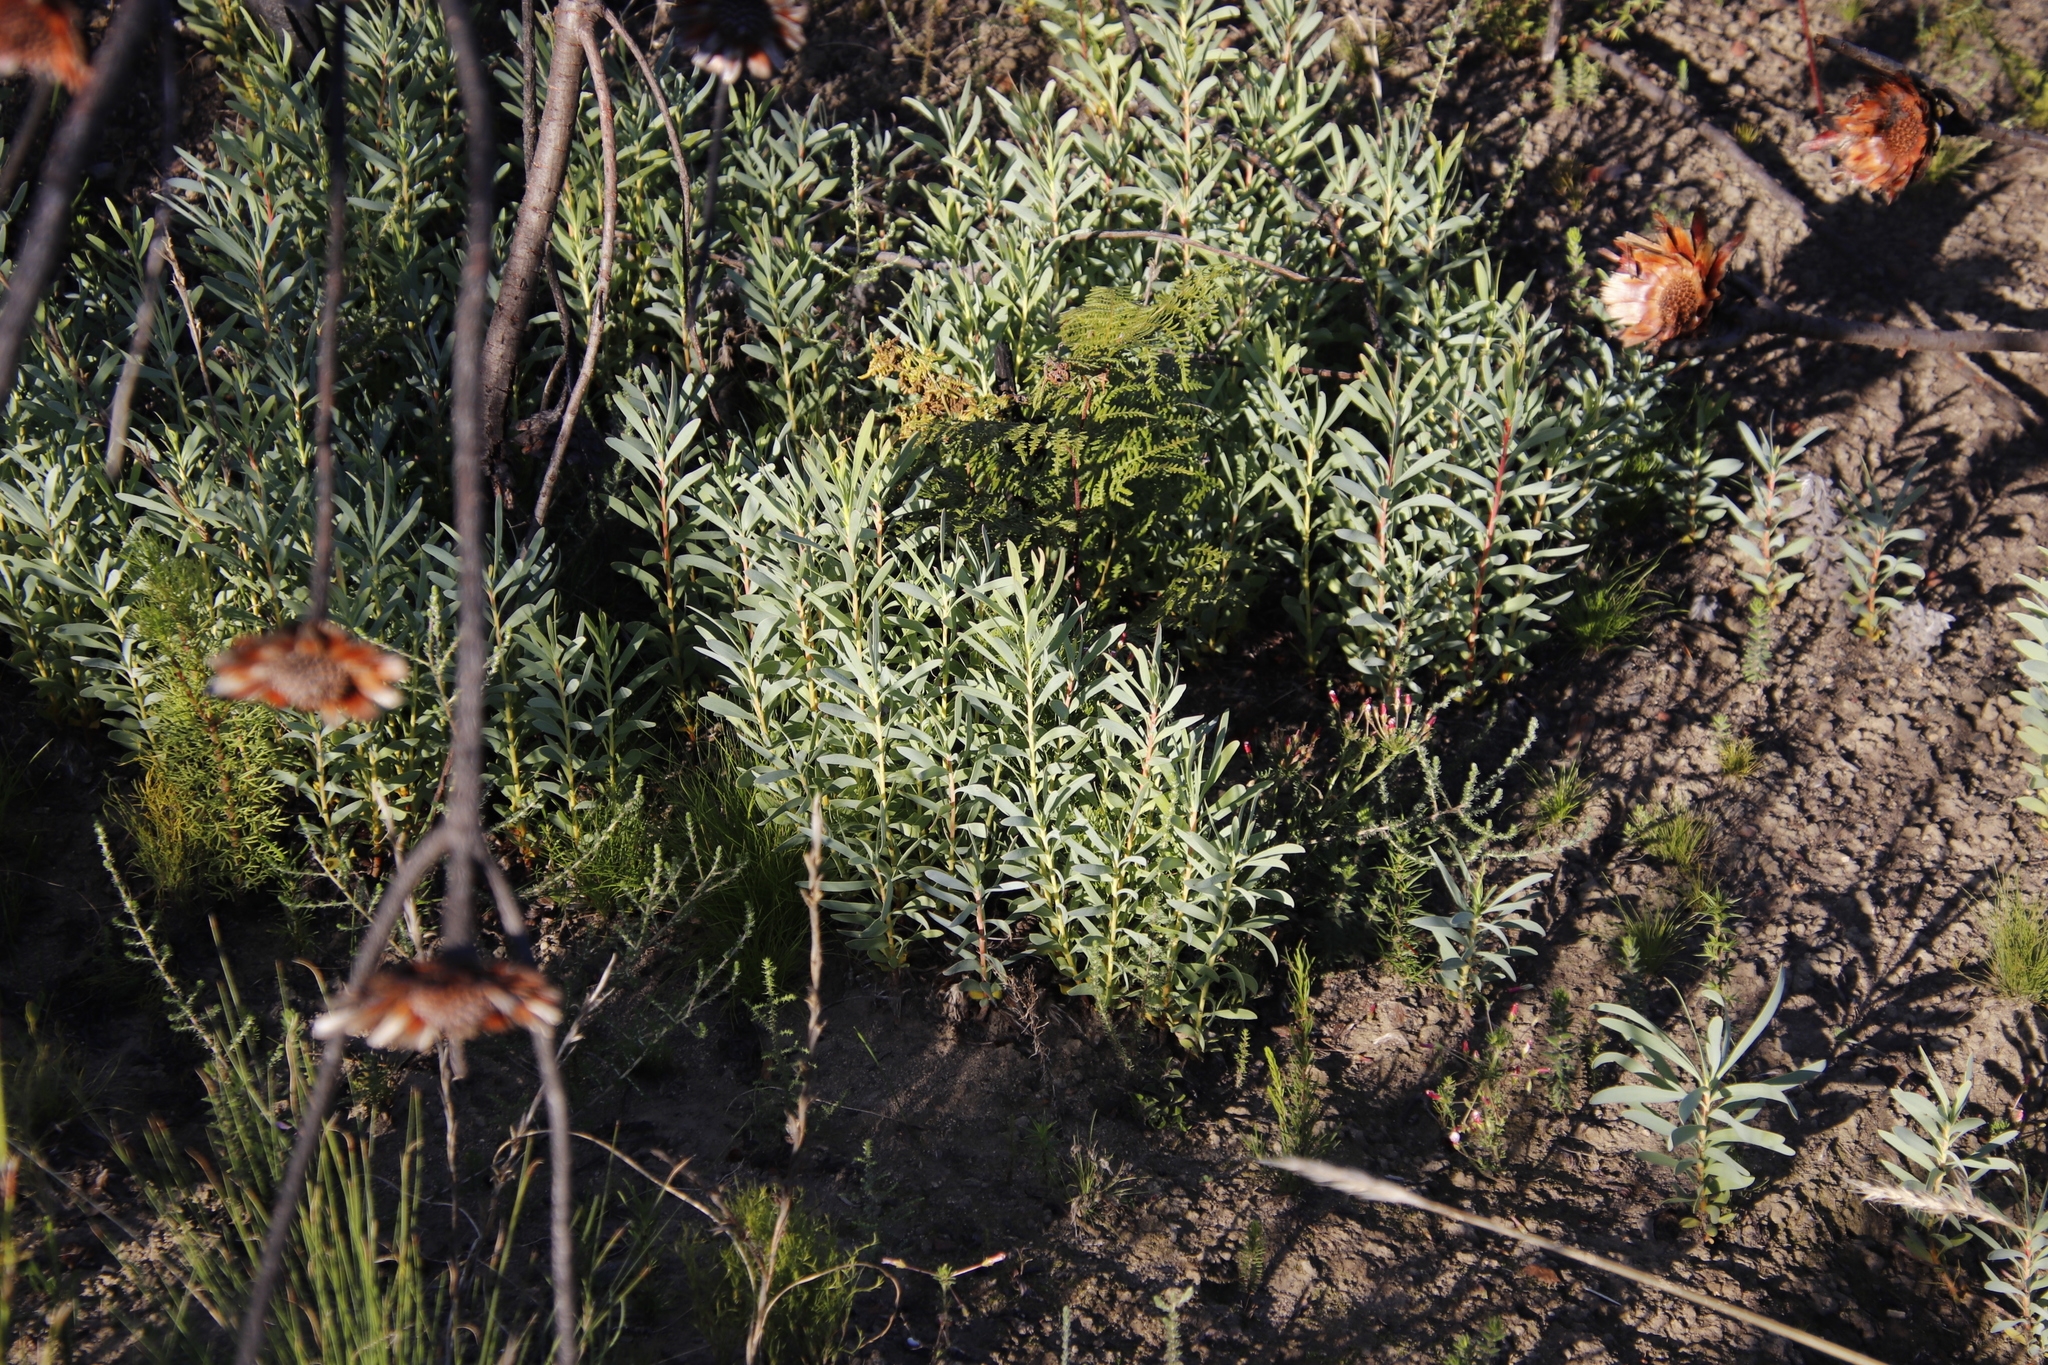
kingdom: Plantae
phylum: Tracheophyta
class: Magnoliopsida
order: Proteales
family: Proteaceae
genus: Protea
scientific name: Protea repens
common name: Sugarbush
